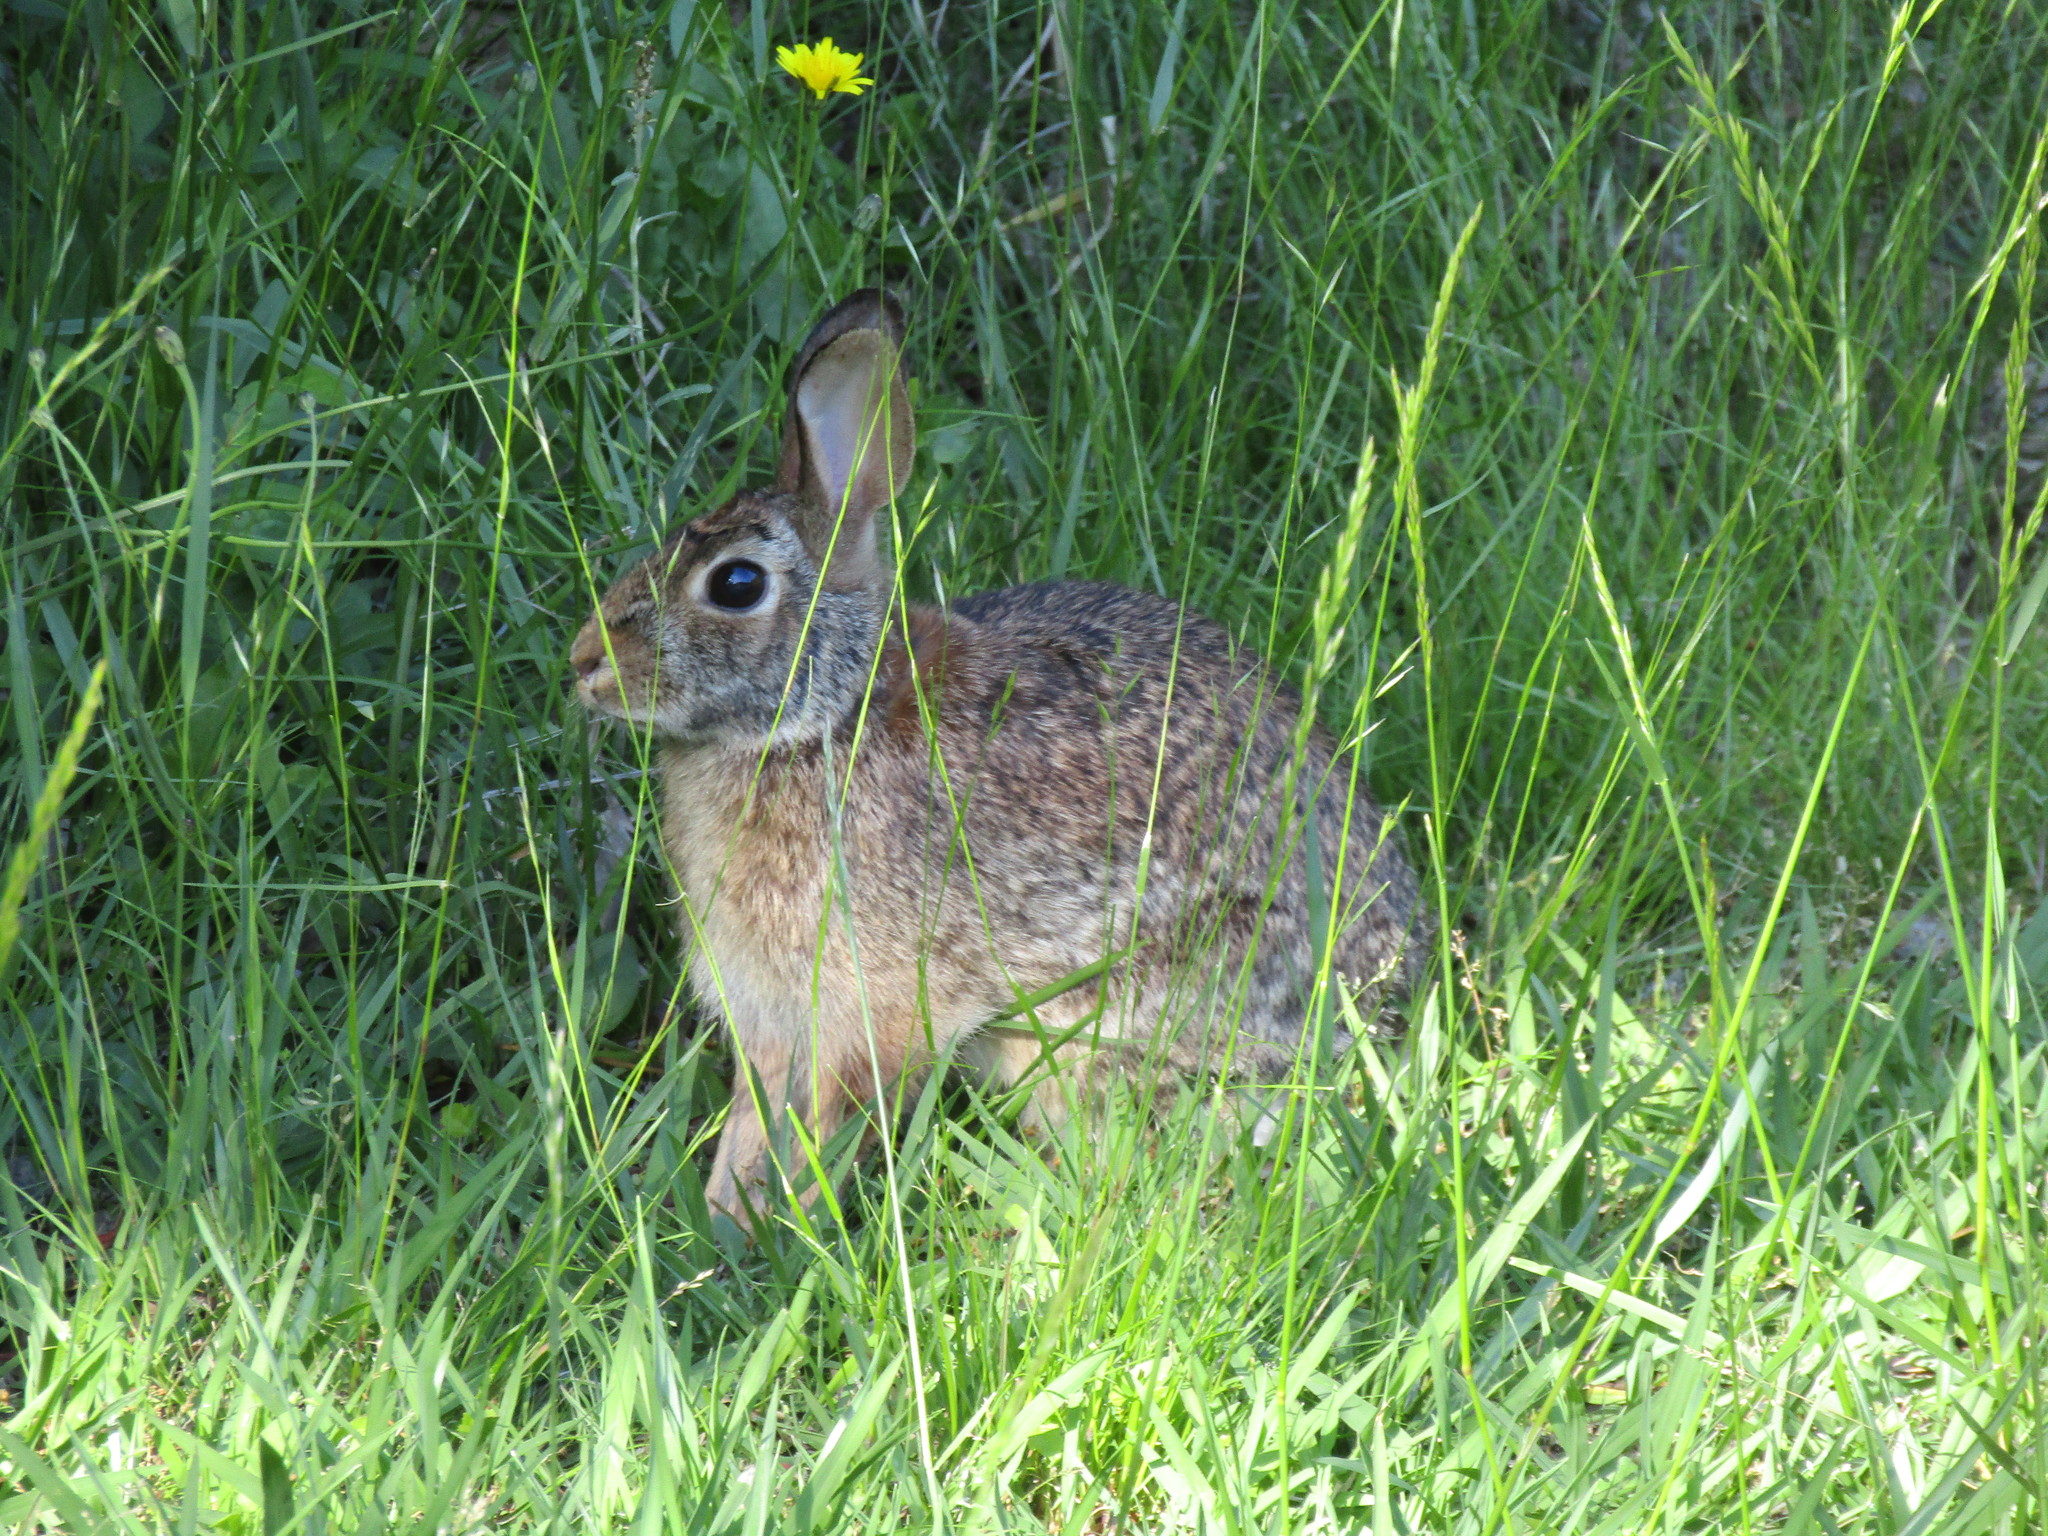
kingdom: Animalia
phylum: Chordata
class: Mammalia
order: Lagomorpha
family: Leporidae
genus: Sylvilagus
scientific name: Sylvilagus floridanus
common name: Eastern cottontail
